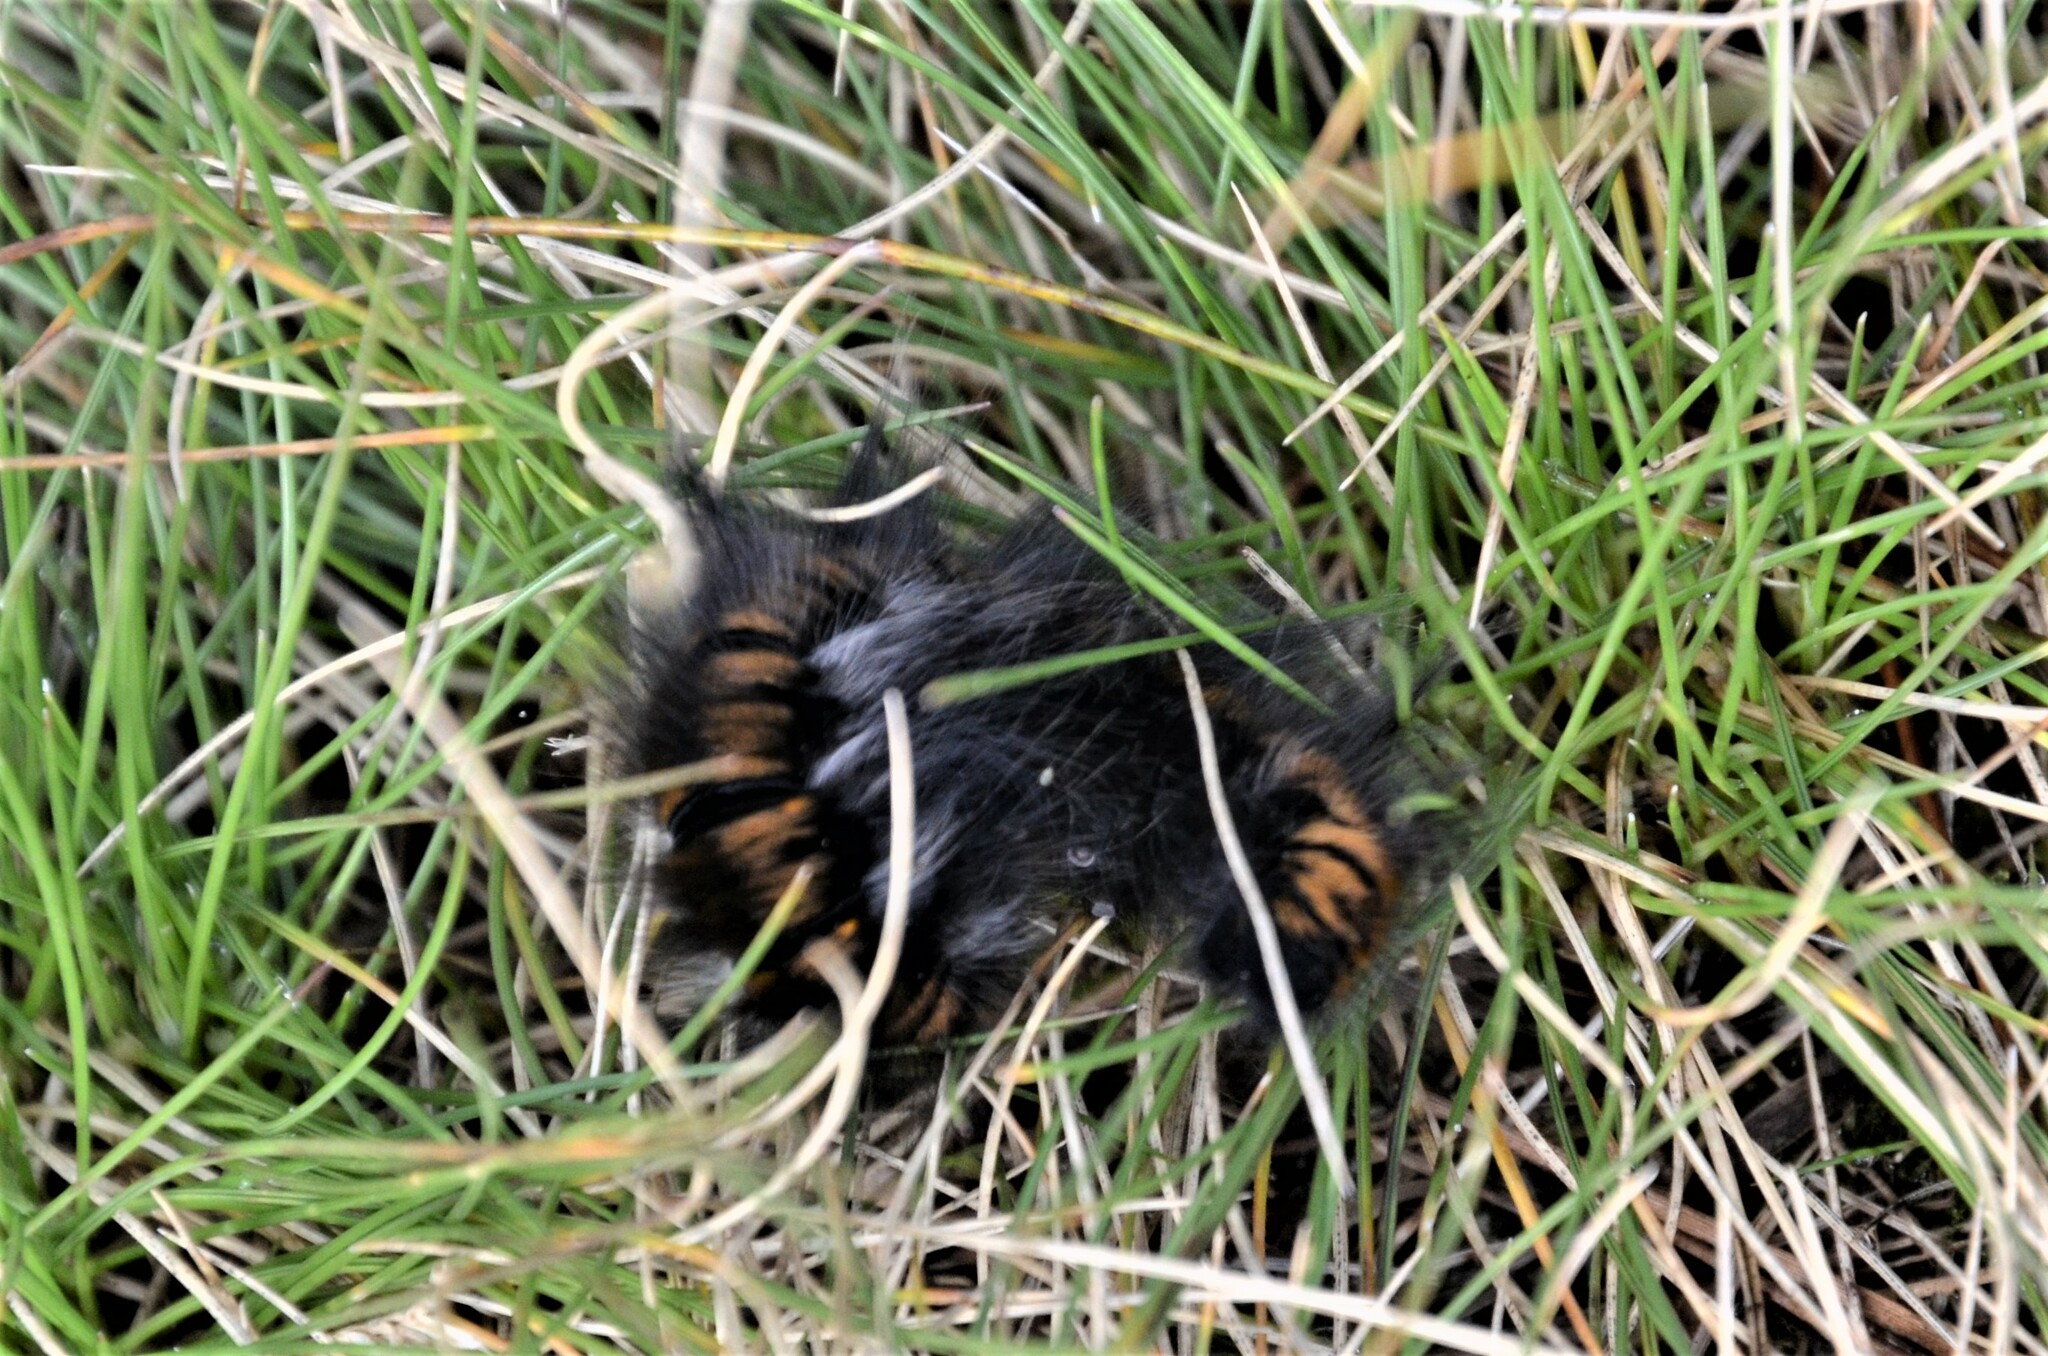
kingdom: Animalia
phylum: Arthropoda
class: Insecta
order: Lepidoptera
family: Lasiocampidae
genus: Macrothylacia
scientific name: Macrothylacia rubi
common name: Fox moth
